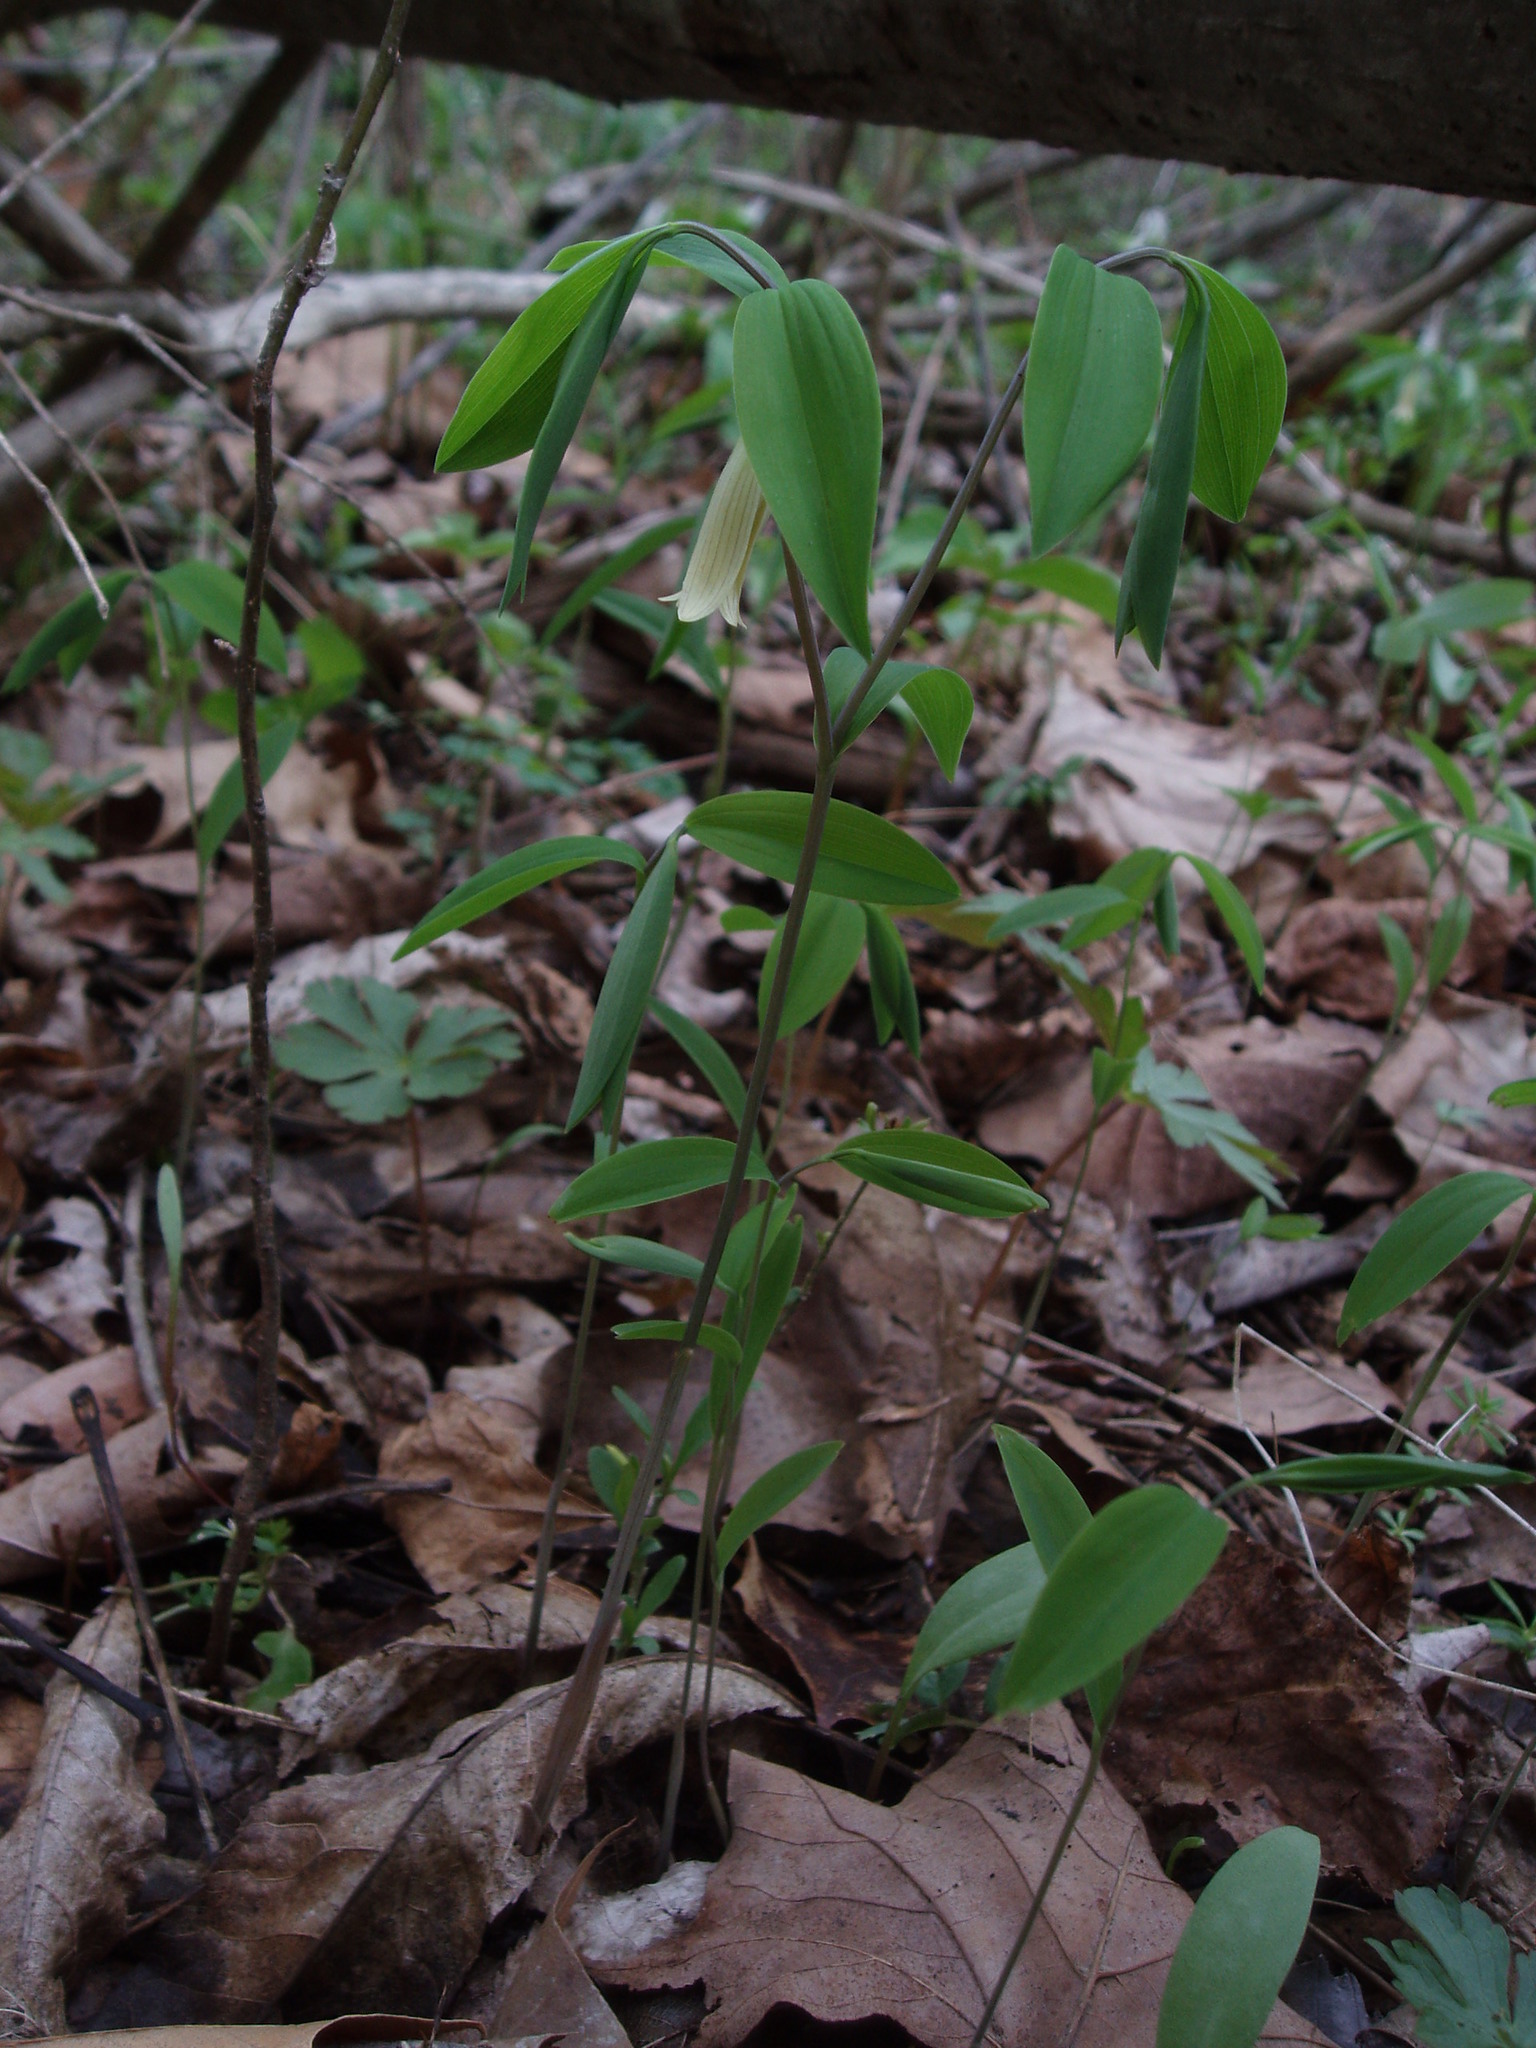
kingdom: Plantae
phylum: Tracheophyta
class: Liliopsida
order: Liliales
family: Colchicaceae
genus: Uvularia
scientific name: Uvularia sessilifolia
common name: Straw-lily
